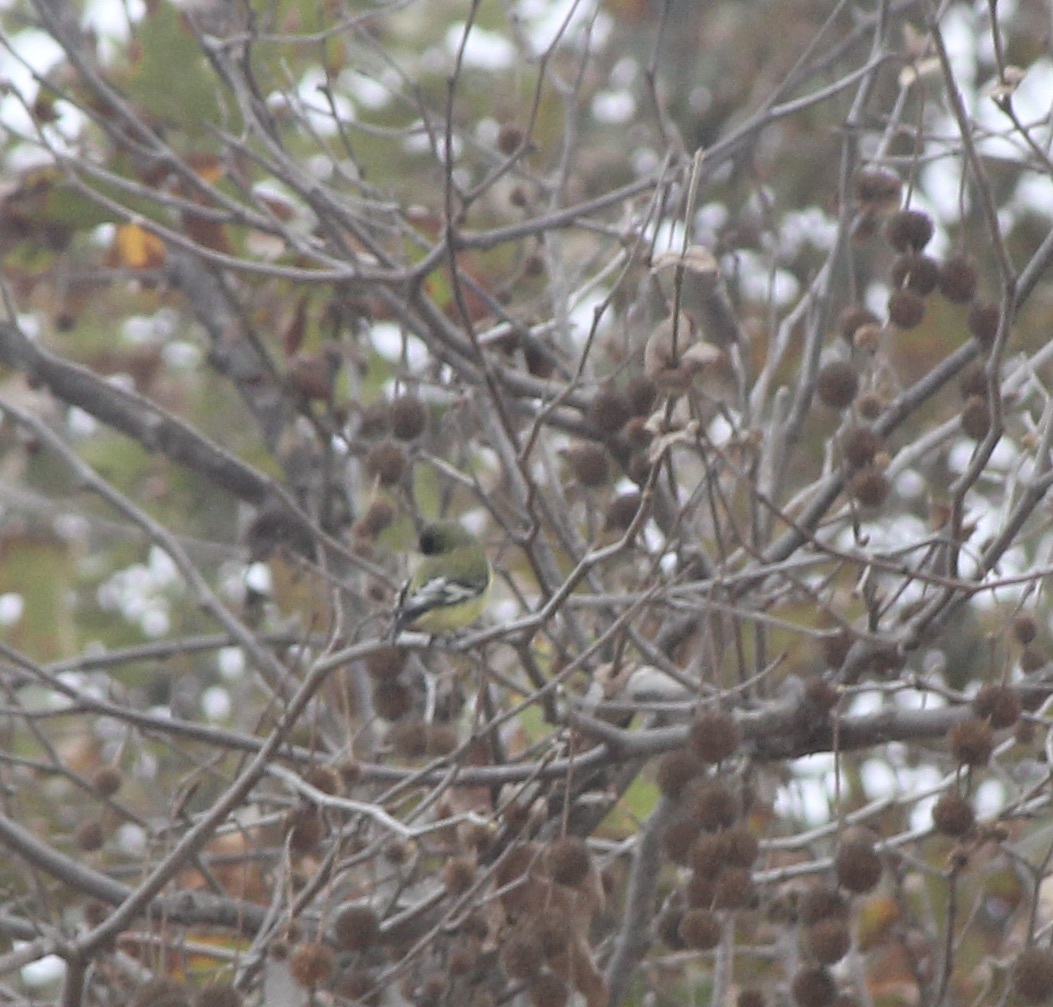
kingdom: Animalia
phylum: Chordata
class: Aves
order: Passeriformes
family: Fringillidae
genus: Spinus
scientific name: Spinus psaltria
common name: Lesser goldfinch
